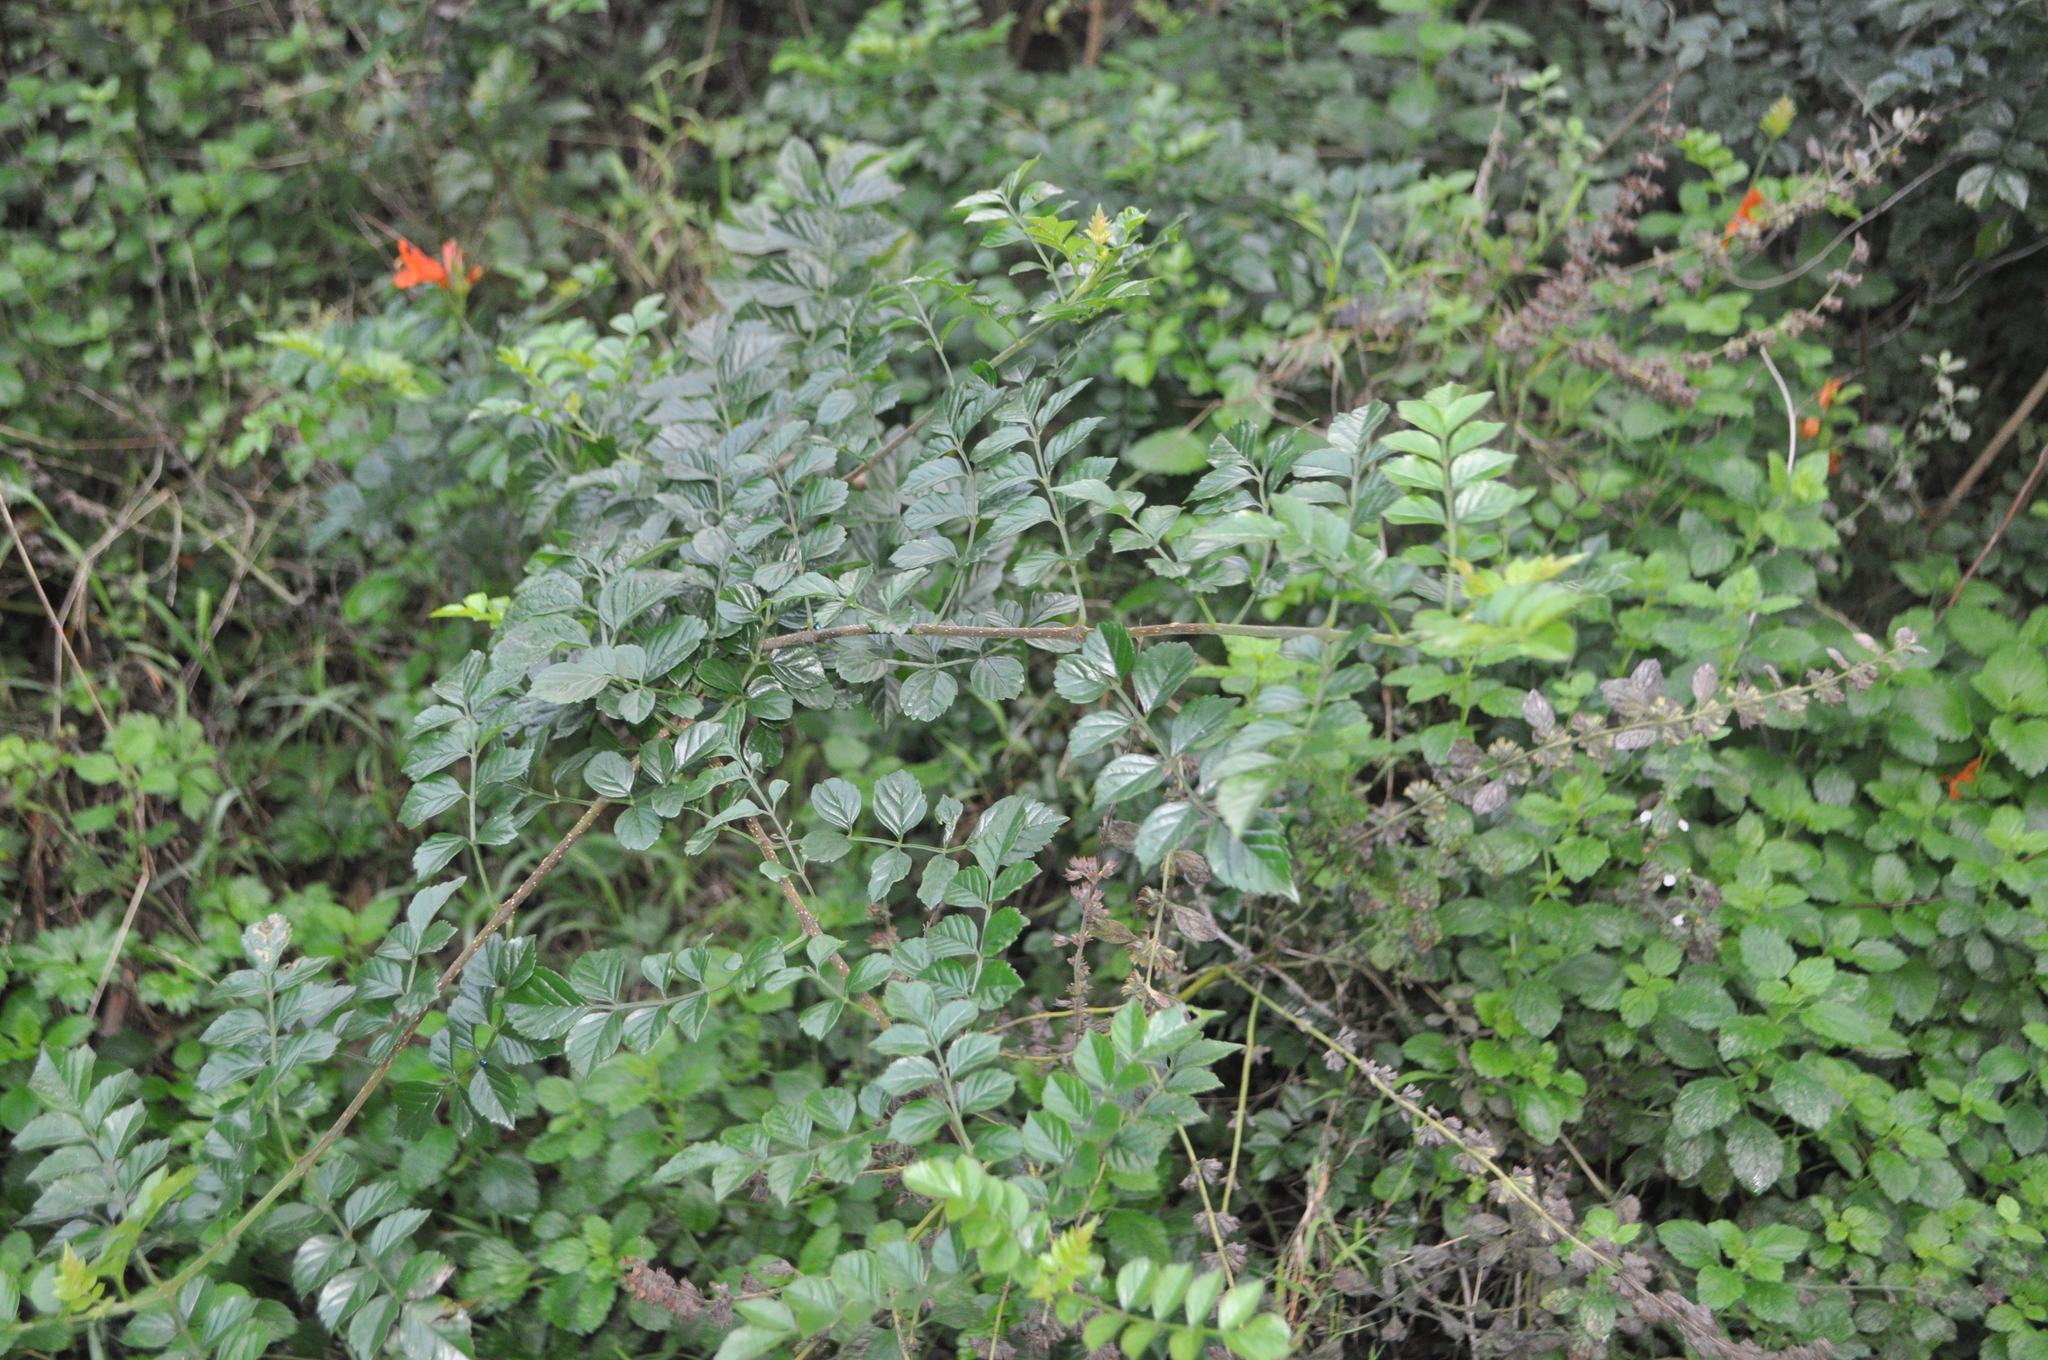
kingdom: Plantae
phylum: Tracheophyta
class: Magnoliopsida
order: Lamiales
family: Bignoniaceae
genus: Tecomaria
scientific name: Tecomaria capensis
